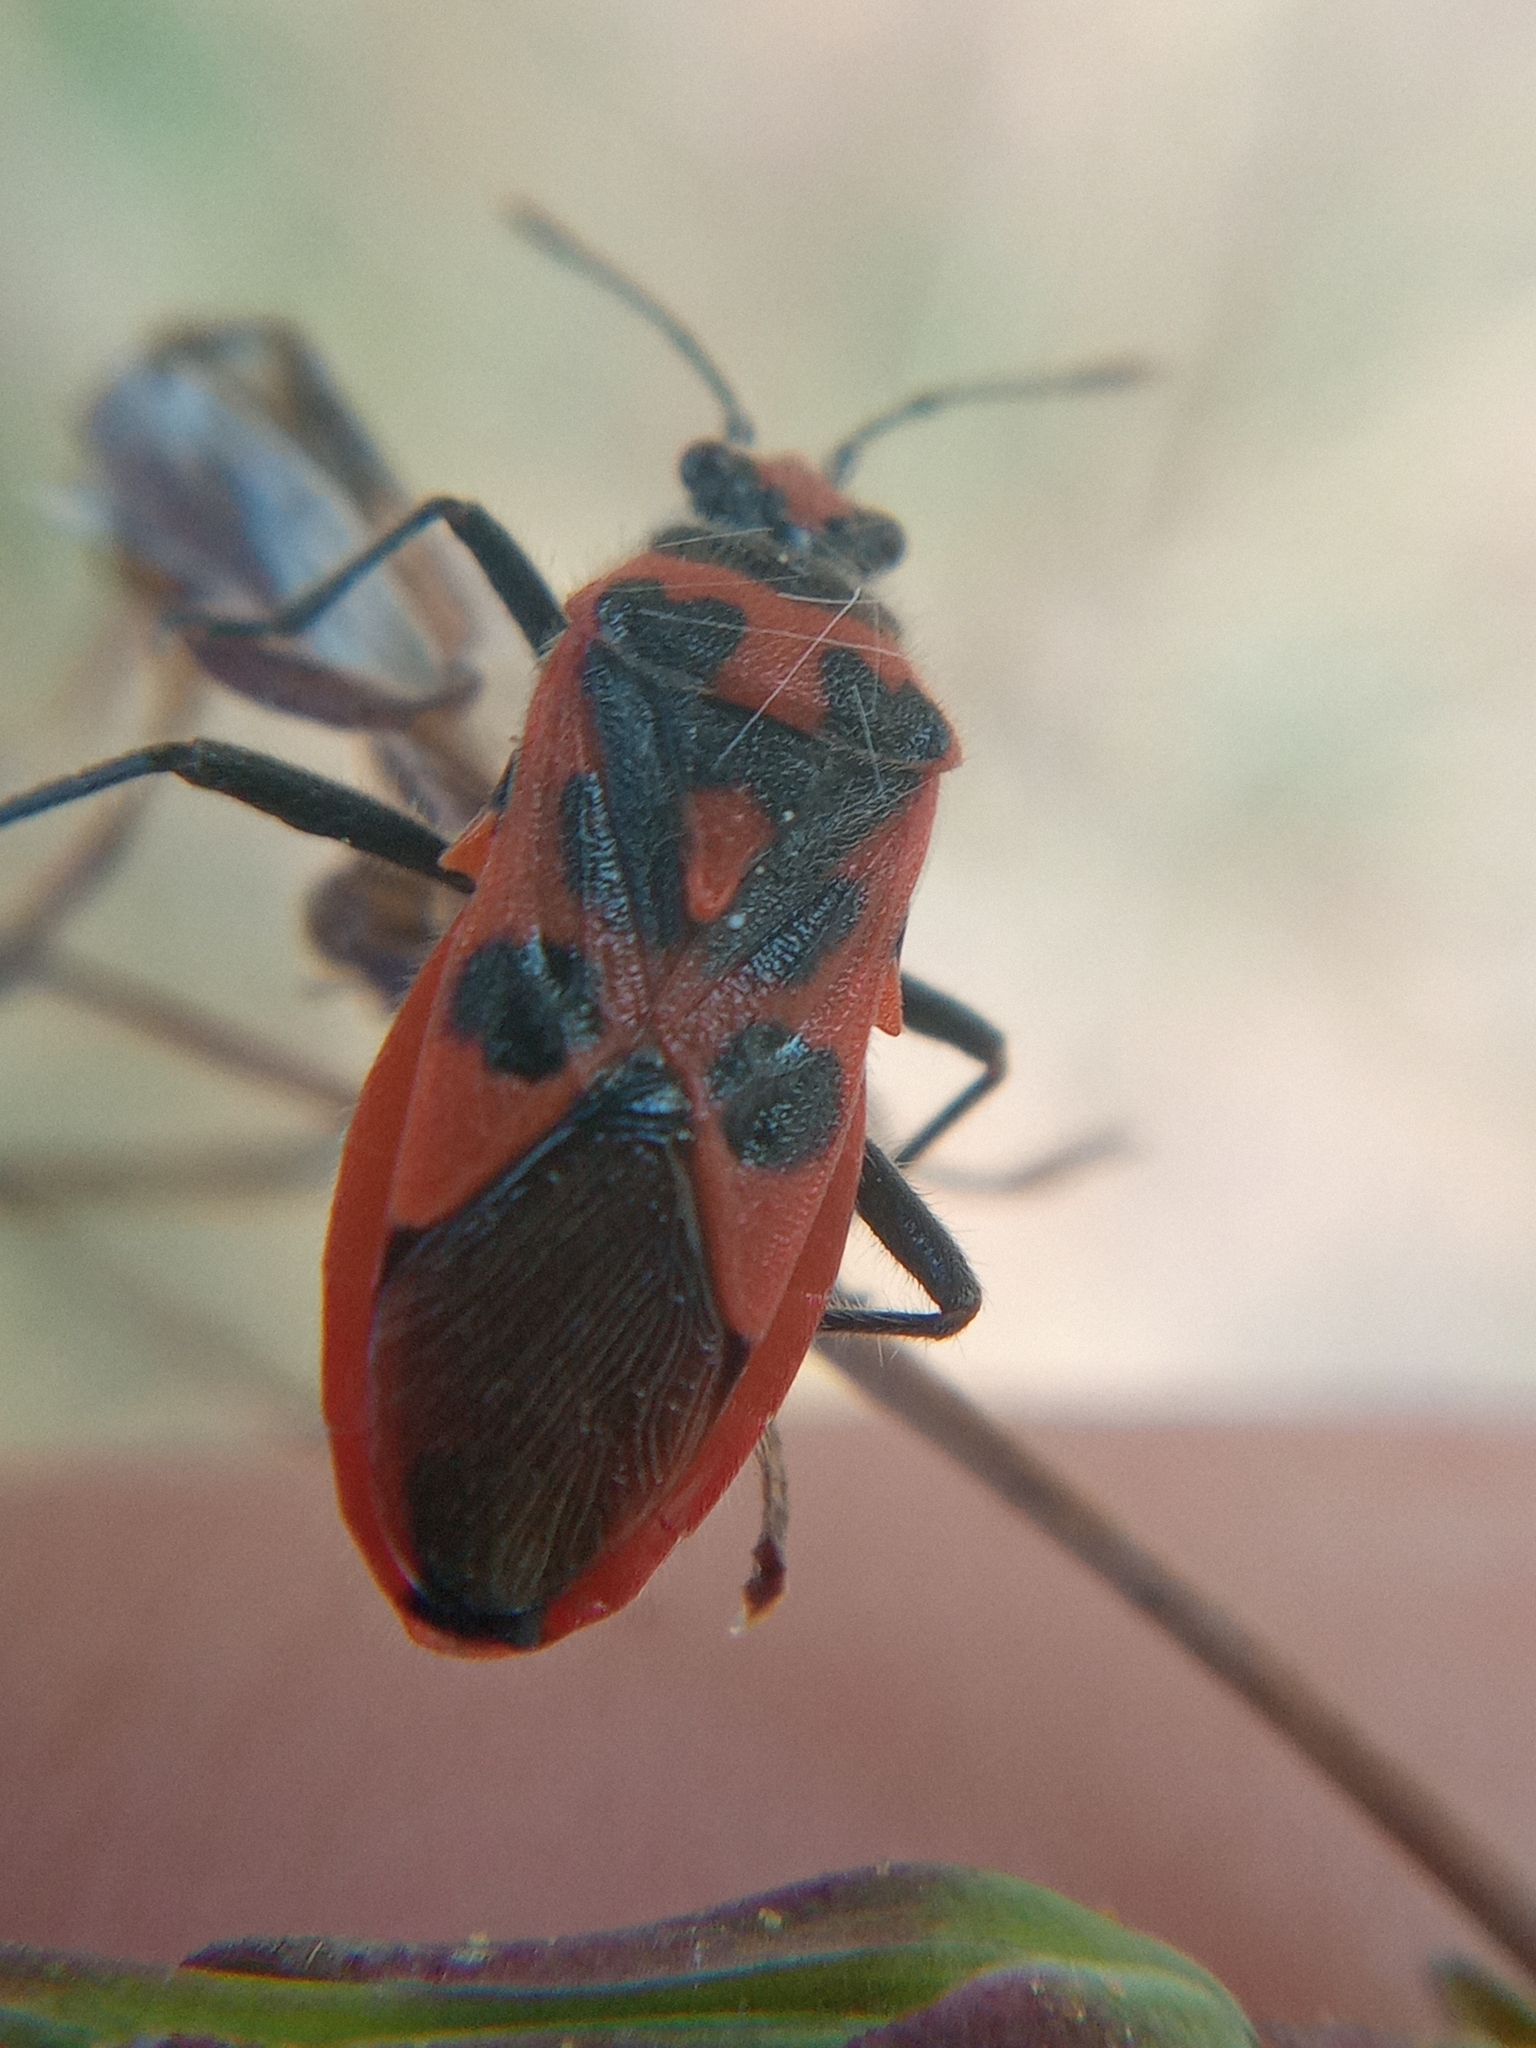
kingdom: Animalia
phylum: Arthropoda
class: Insecta
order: Hemiptera
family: Rhopalidae
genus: Corizus
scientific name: Corizus hyoscyami
